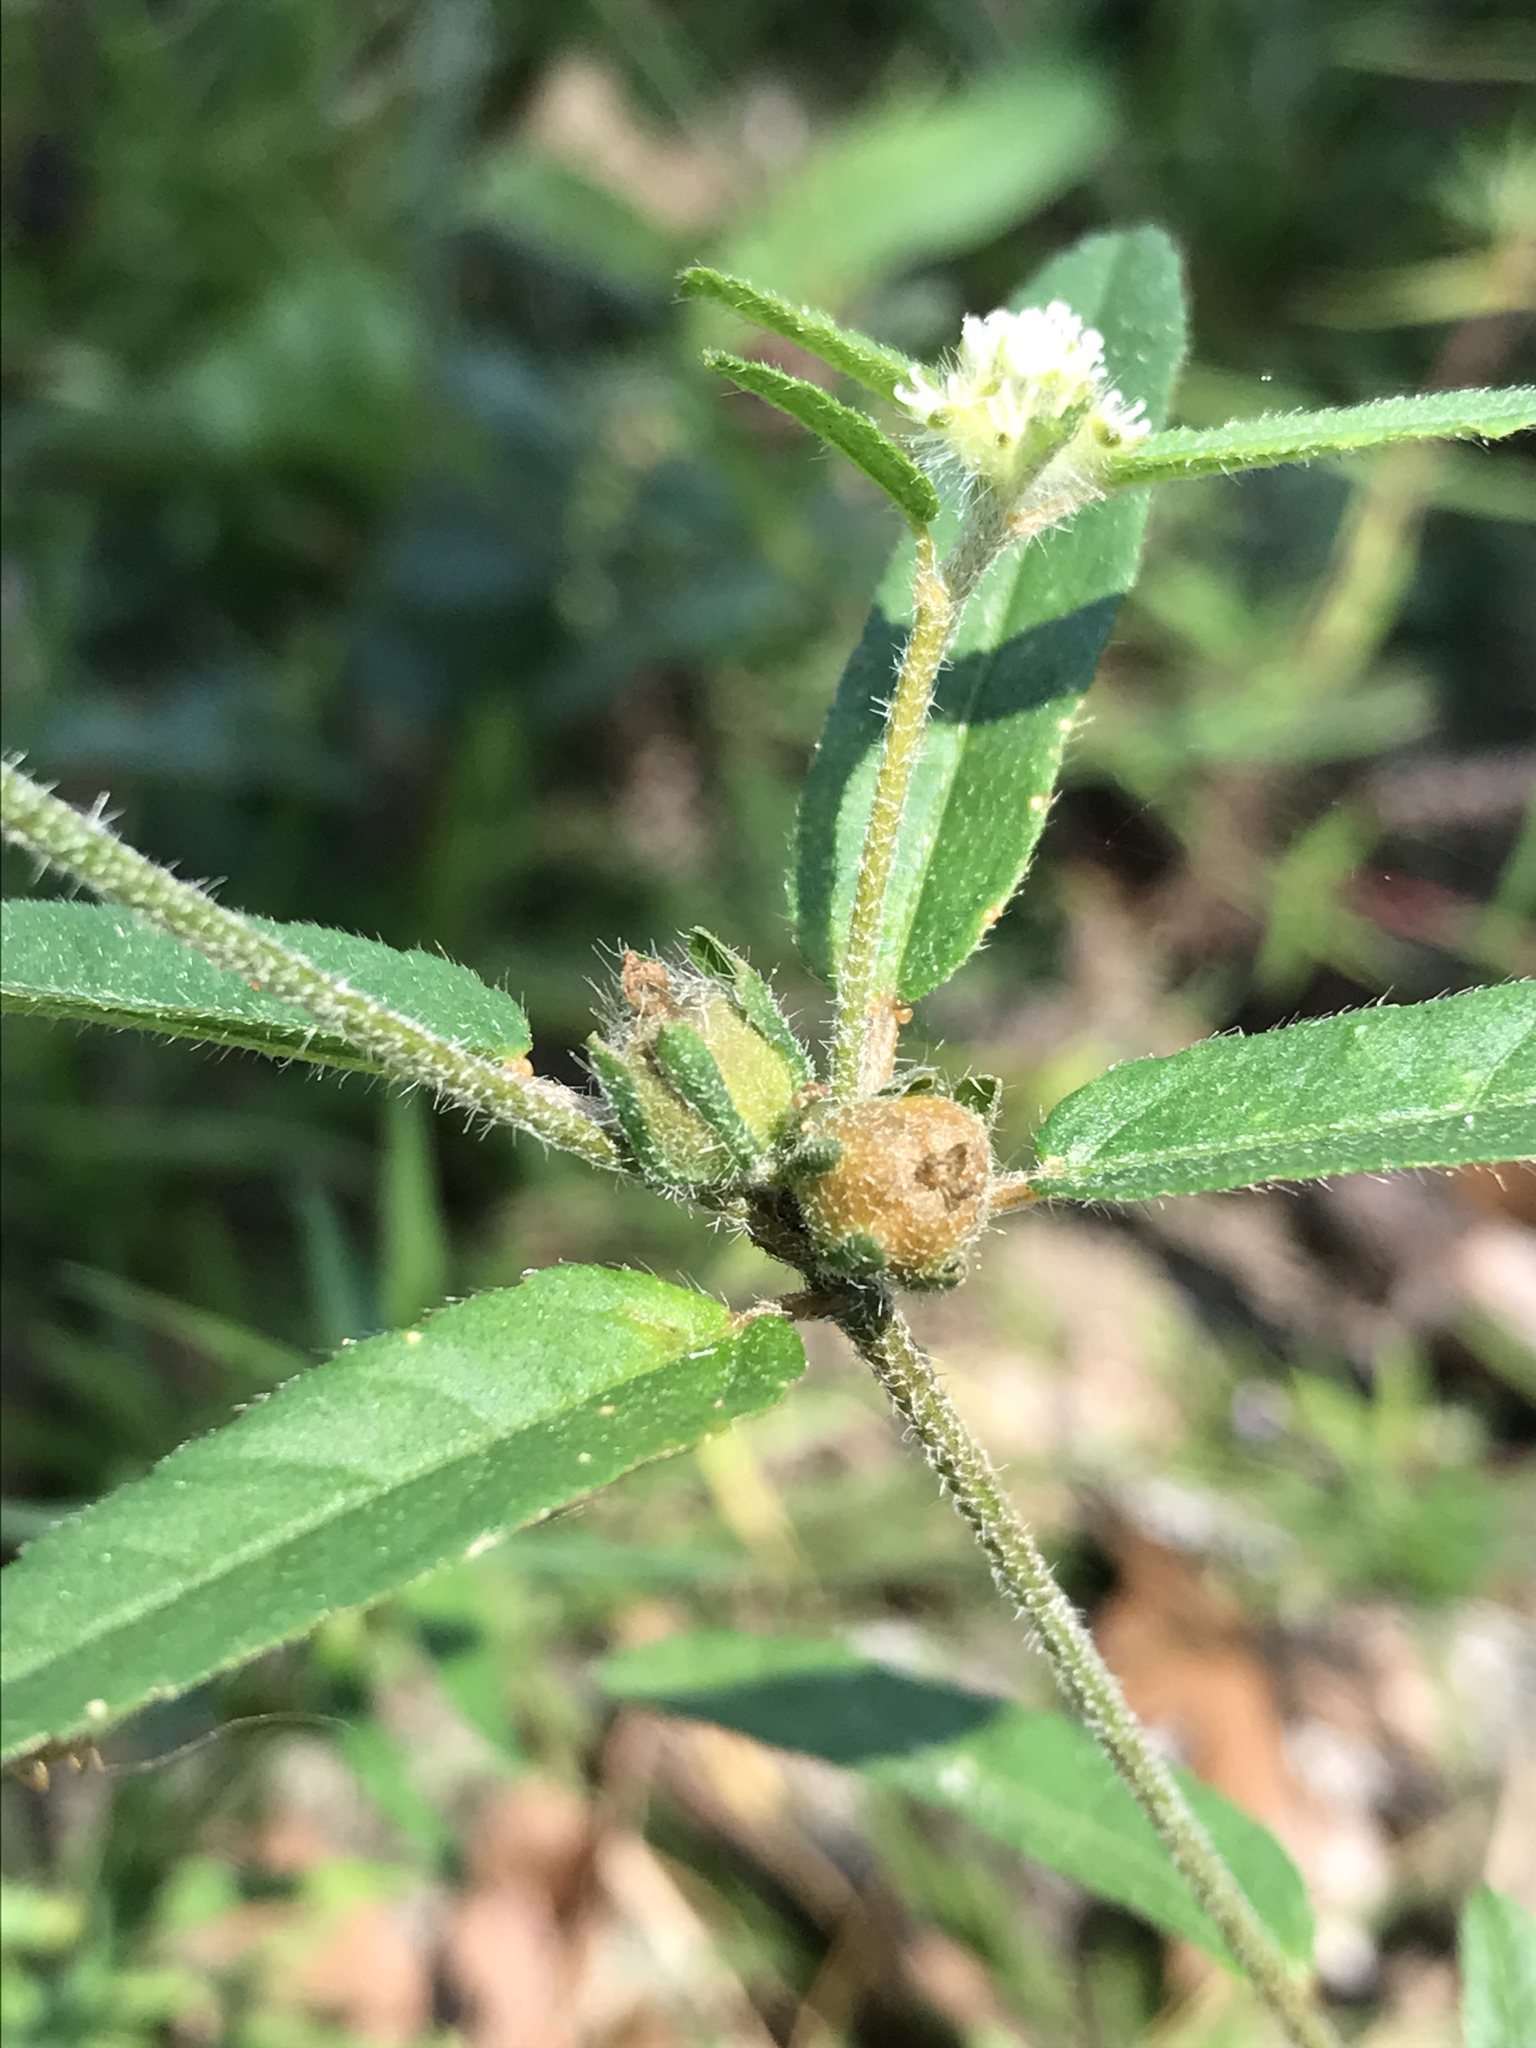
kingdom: Plantae
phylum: Tracheophyta
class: Magnoliopsida
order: Malpighiales
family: Euphorbiaceae
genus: Croton
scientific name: Croton glandulosus
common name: Tropic croton
